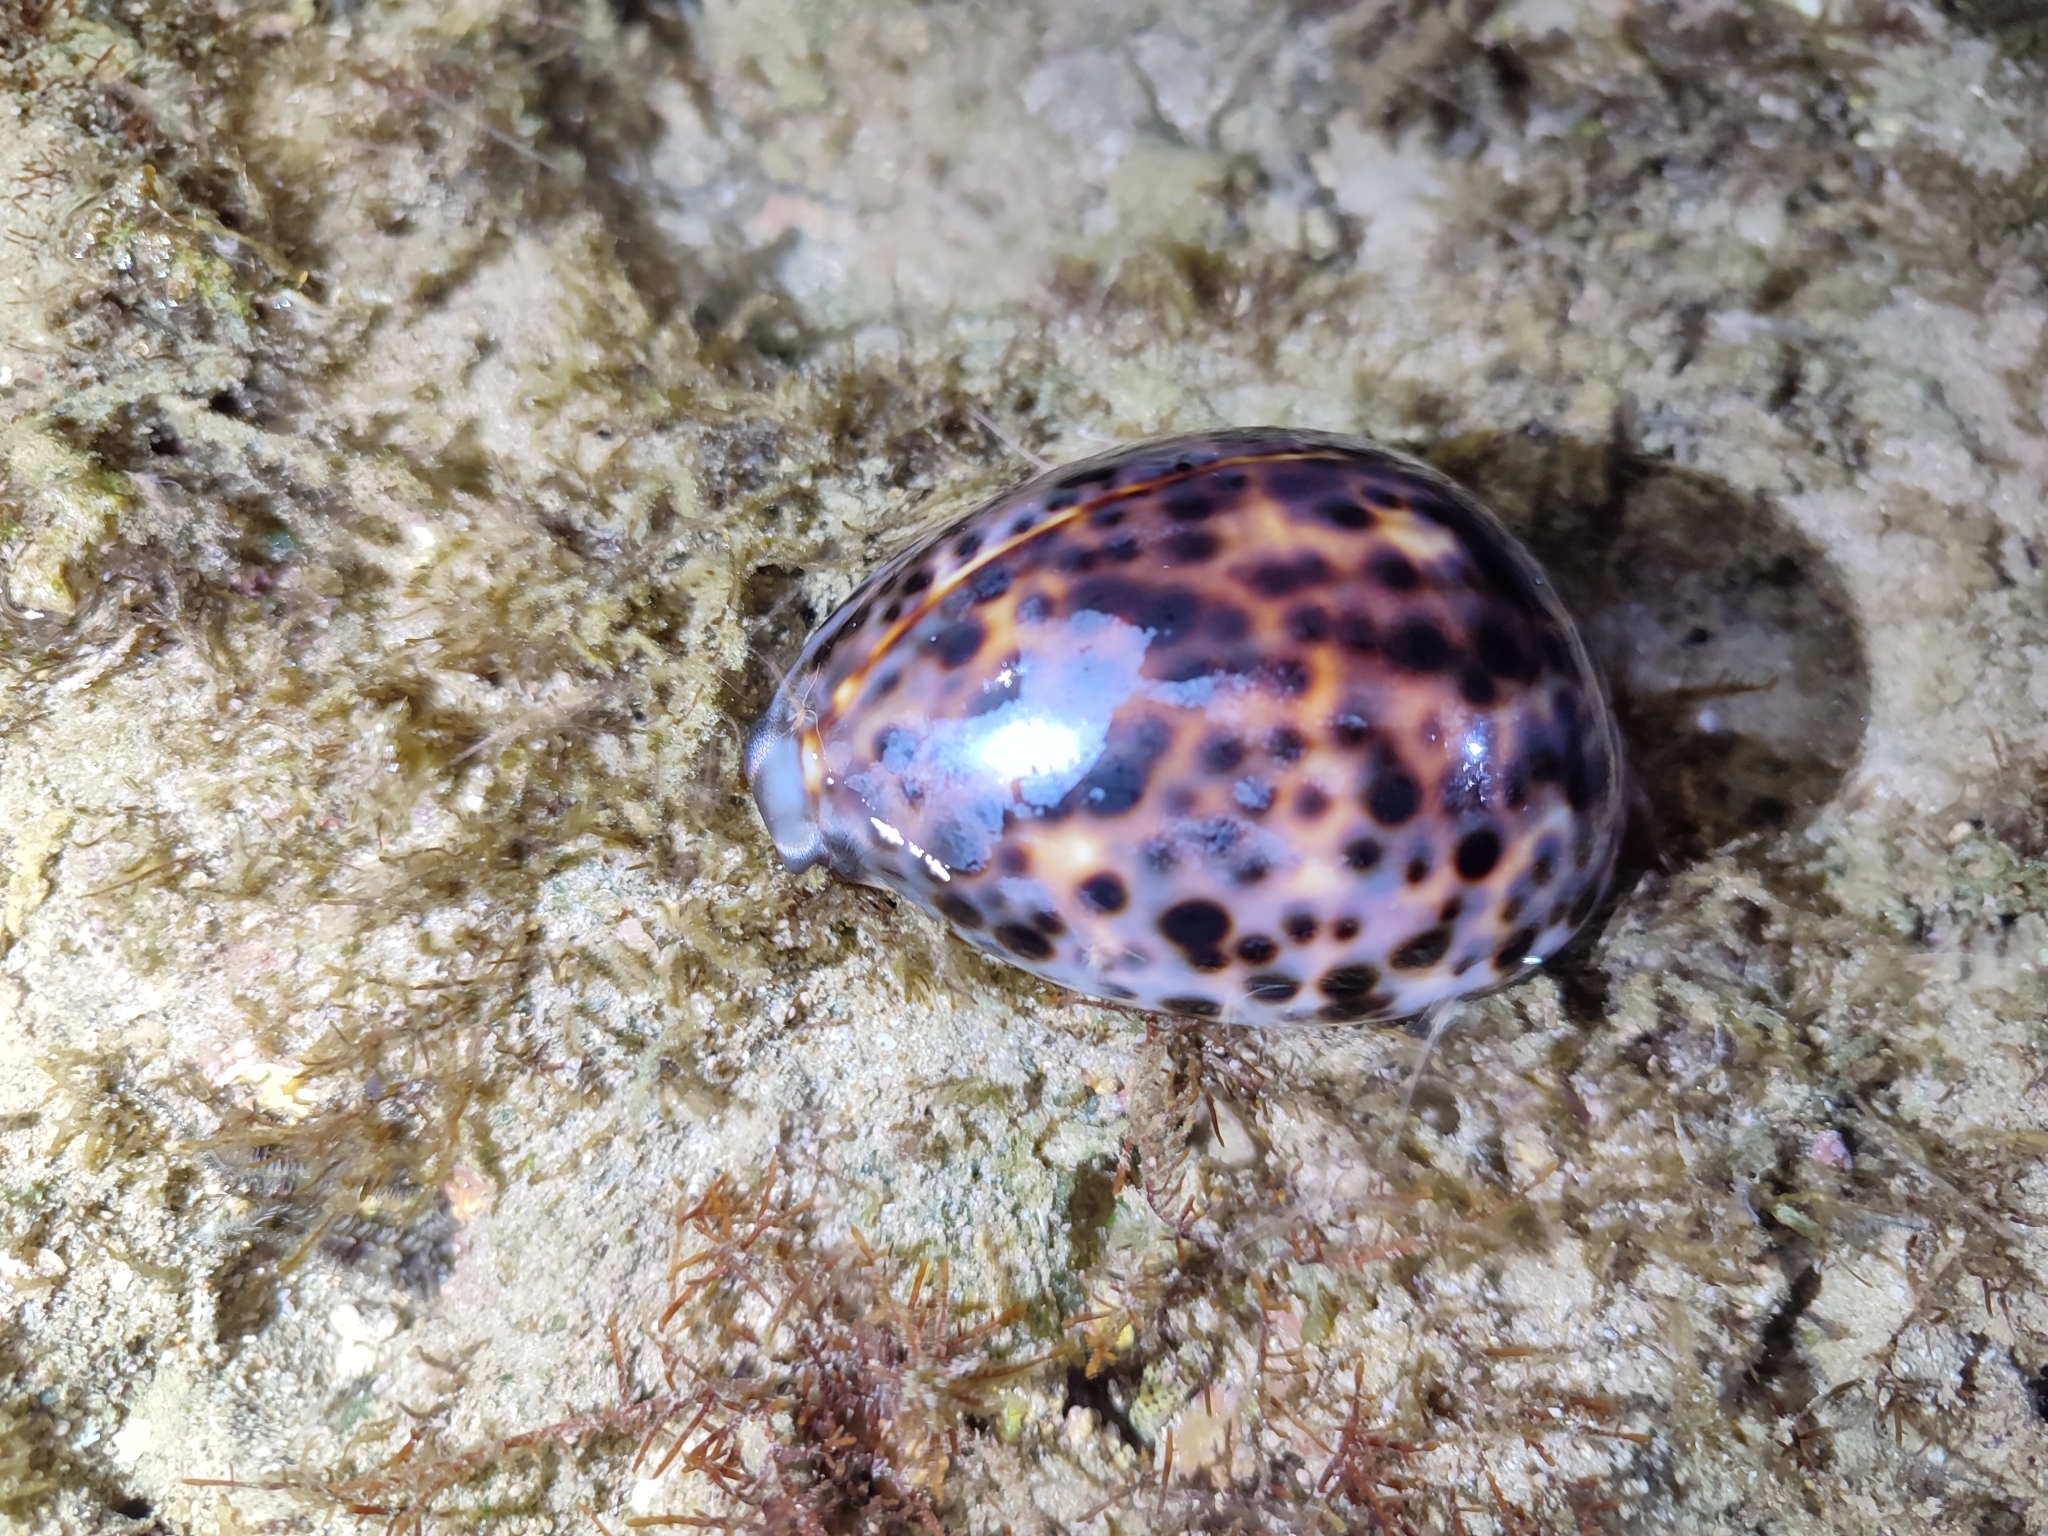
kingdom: Animalia
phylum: Mollusca
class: Gastropoda
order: Littorinimorpha
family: Cypraeidae
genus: Cypraea
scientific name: Cypraea tigris
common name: Tiger cowrie
